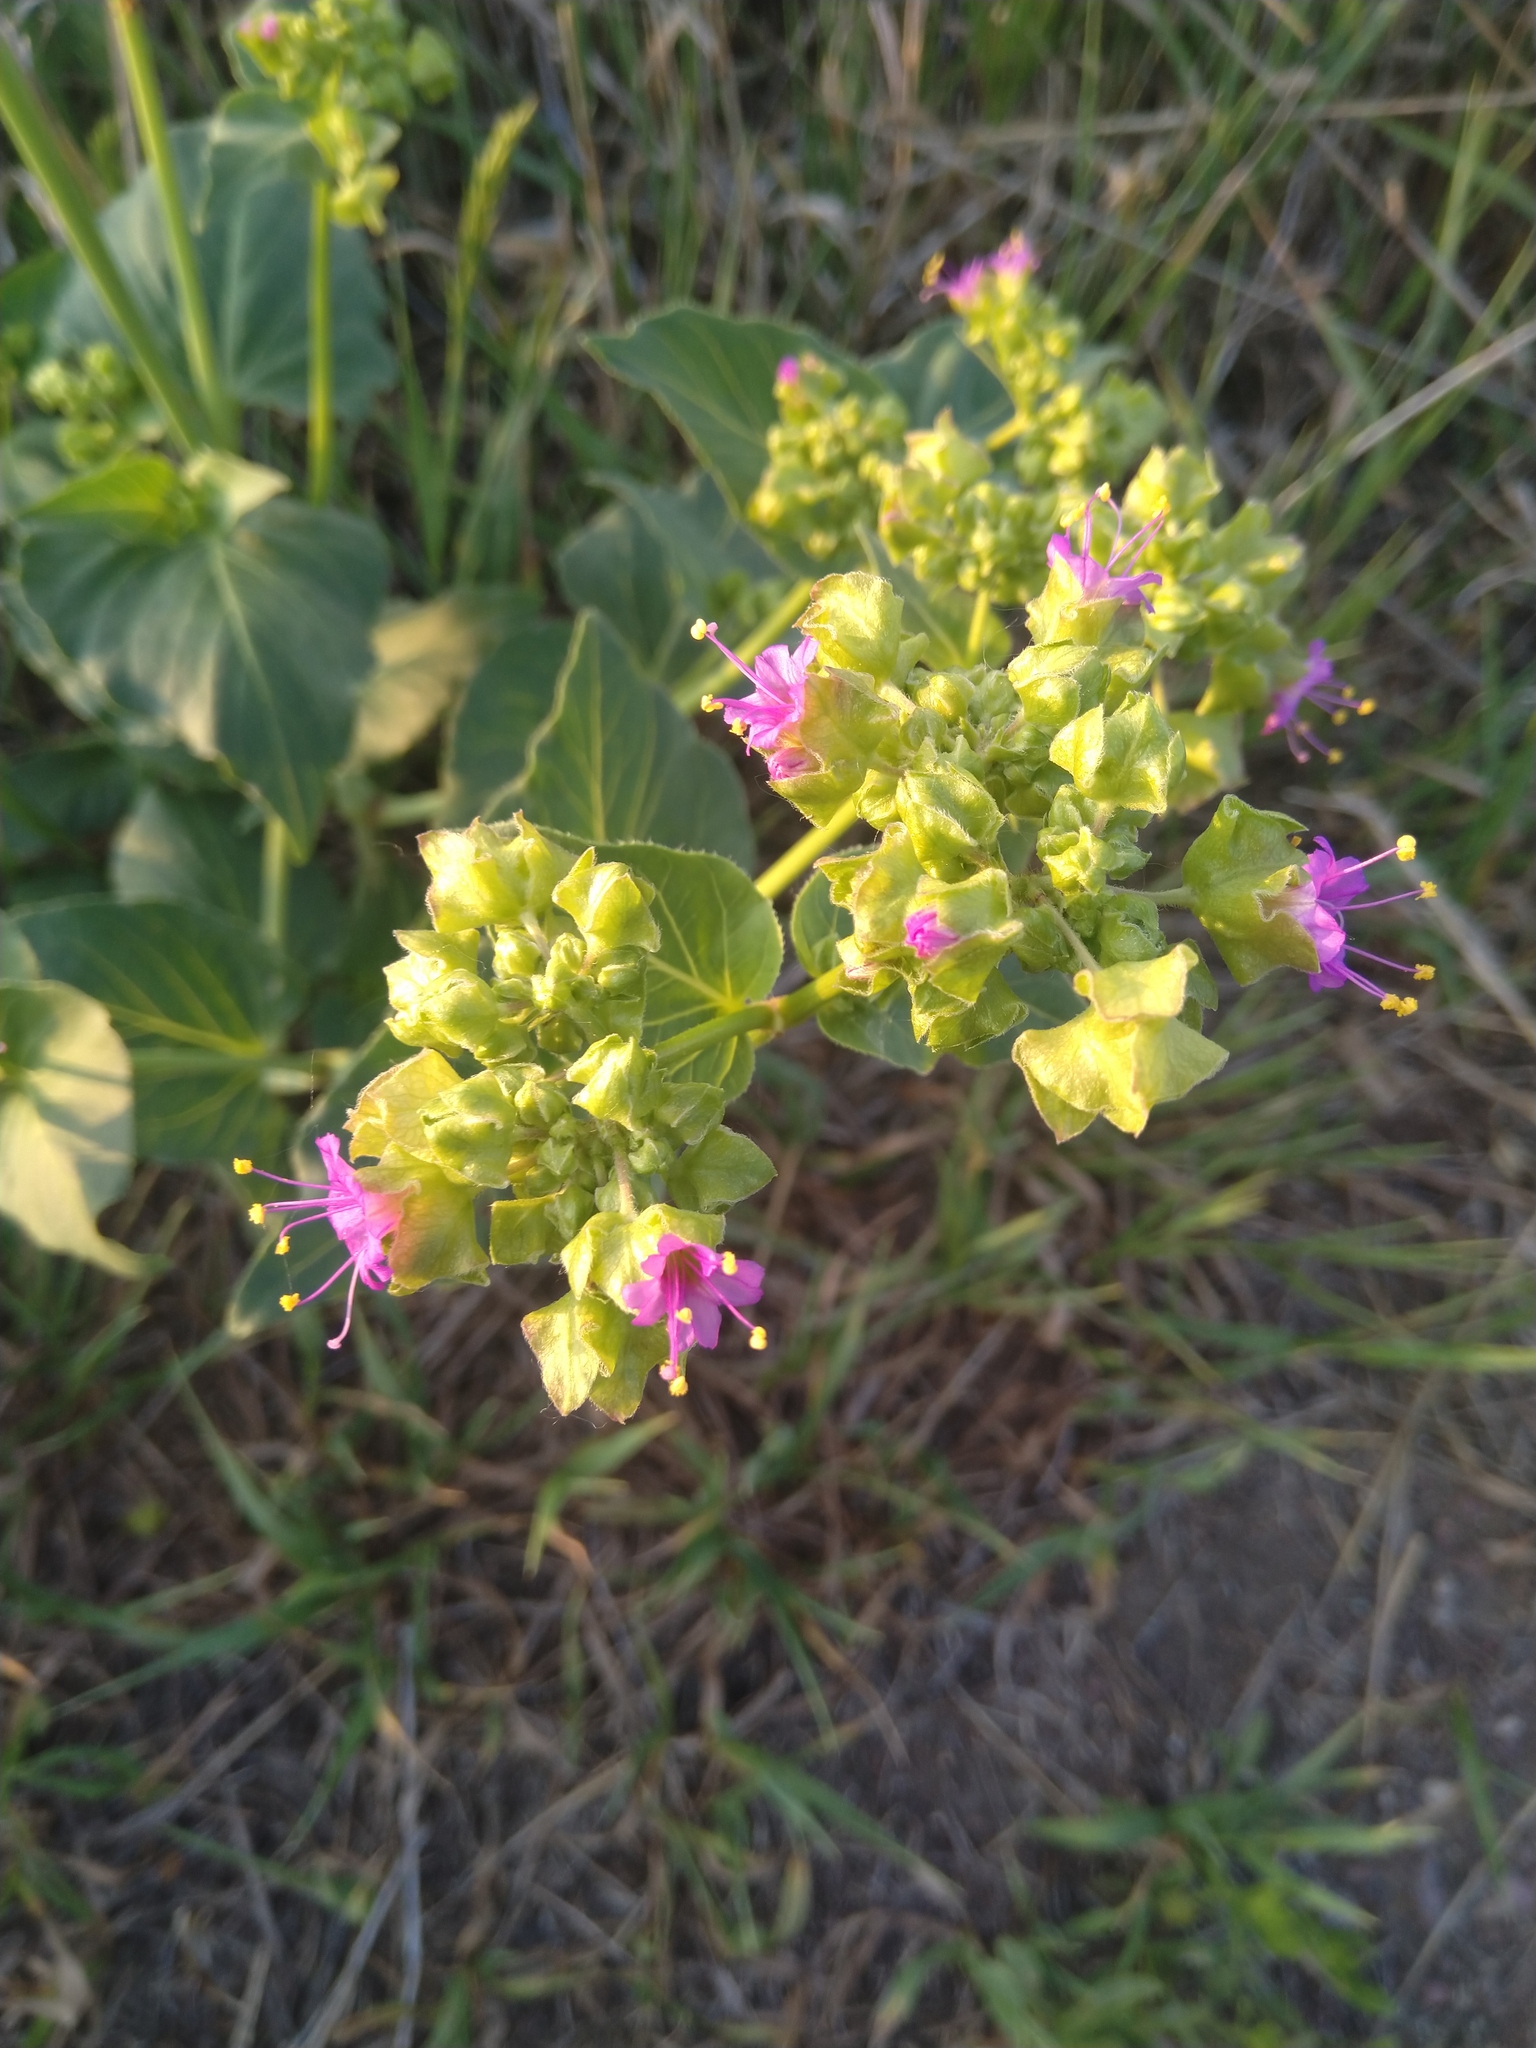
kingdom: Plantae
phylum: Tracheophyta
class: Magnoliopsida
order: Caryophyllales
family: Nyctaginaceae
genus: Mirabilis
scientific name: Mirabilis nyctaginea
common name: Umbrella wort
